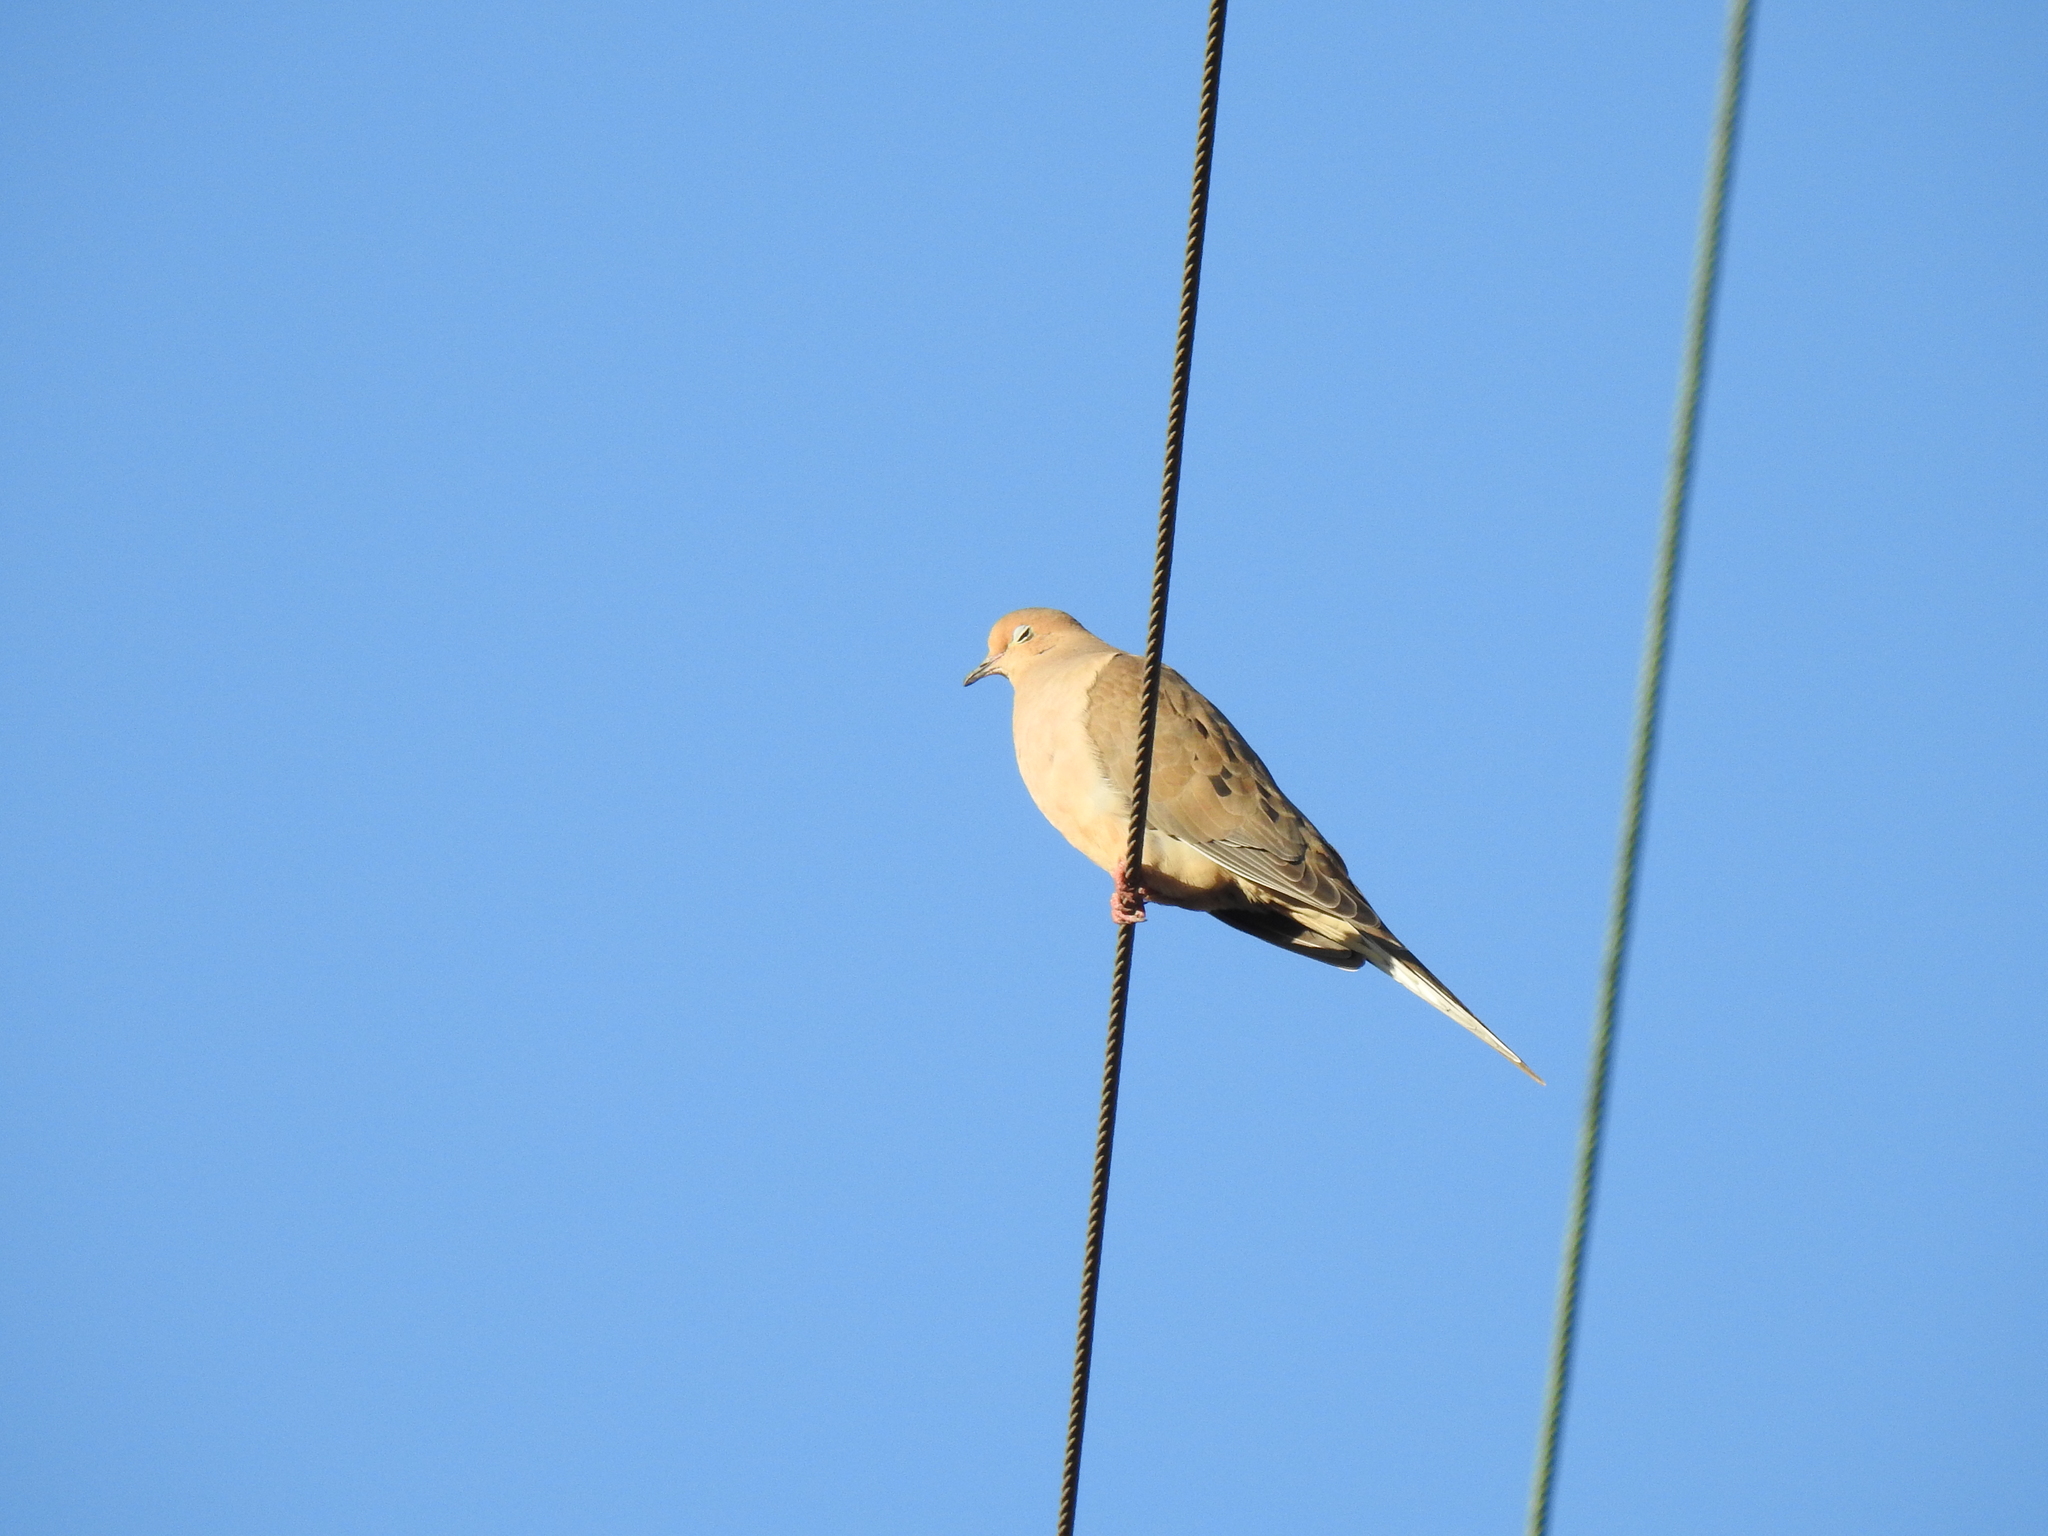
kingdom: Animalia
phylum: Chordata
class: Aves
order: Columbiformes
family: Columbidae
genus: Zenaida
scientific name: Zenaida macroura
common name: Mourning dove
